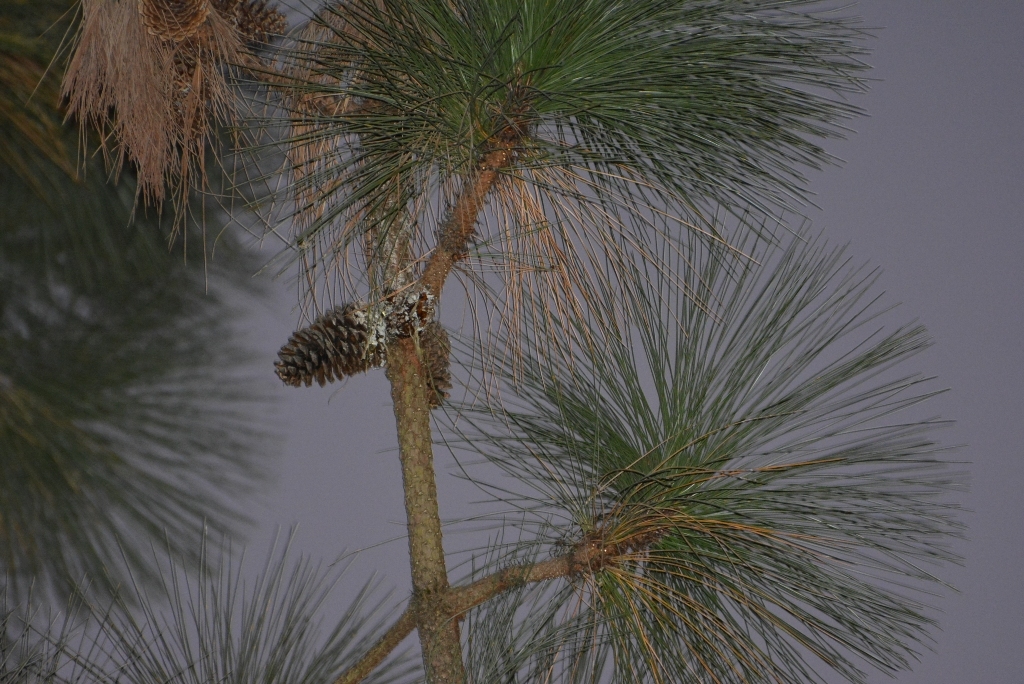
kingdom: Plantae
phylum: Tracheophyta
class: Pinopsida
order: Pinales
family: Pinaceae
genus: Pinus
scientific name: Pinus montezumae
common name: Montezuma pine
